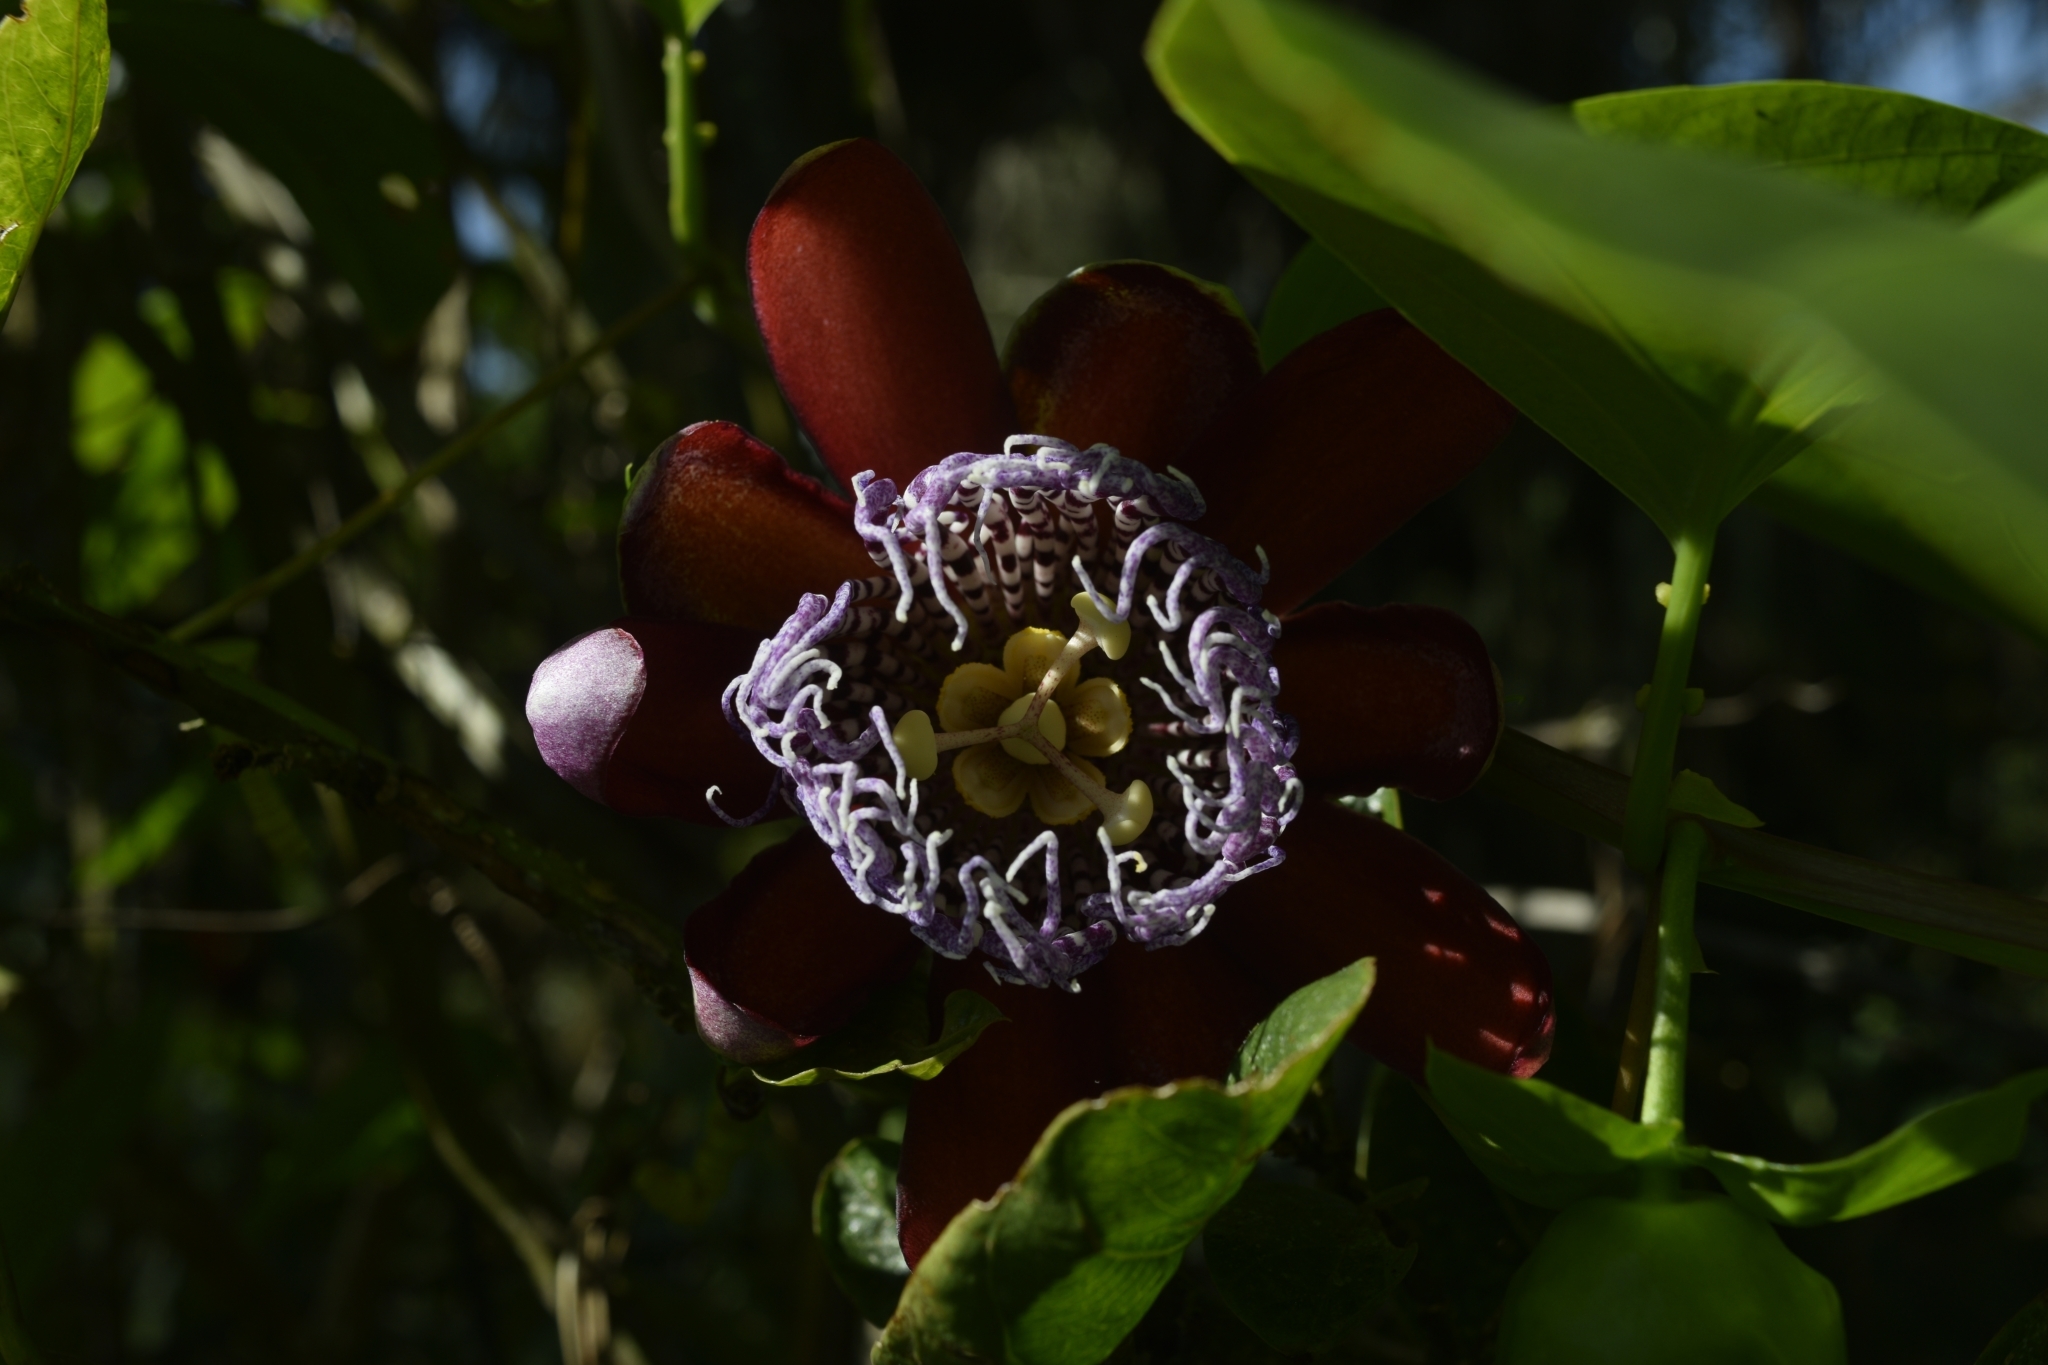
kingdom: Plantae
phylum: Tracheophyta
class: Magnoliopsida
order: Malpighiales
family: Passifloraceae
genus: Passiflora
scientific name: Passiflora alata
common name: Wing-stemmed passion flower
